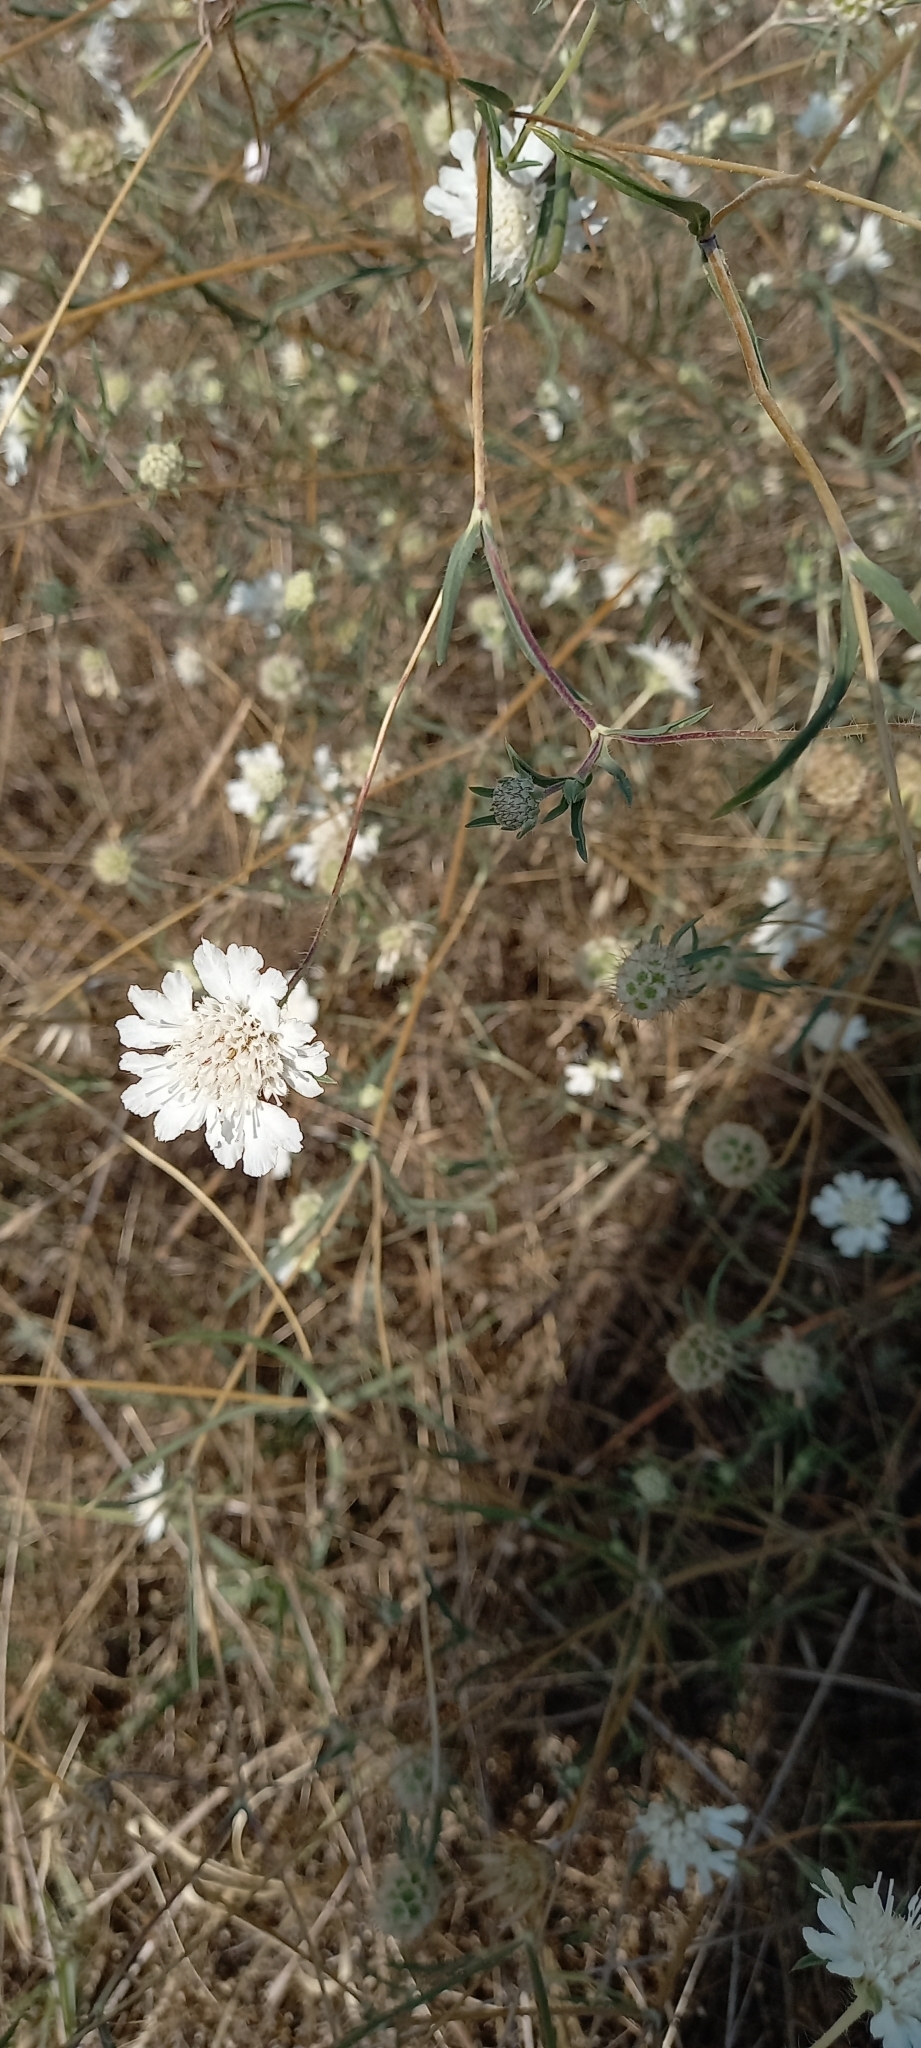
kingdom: Plantae
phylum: Tracheophyta
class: Magnoliopsida
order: Dipsacales
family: Caprifoliaceae
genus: Lomelosia
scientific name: Lomelosia argentea
